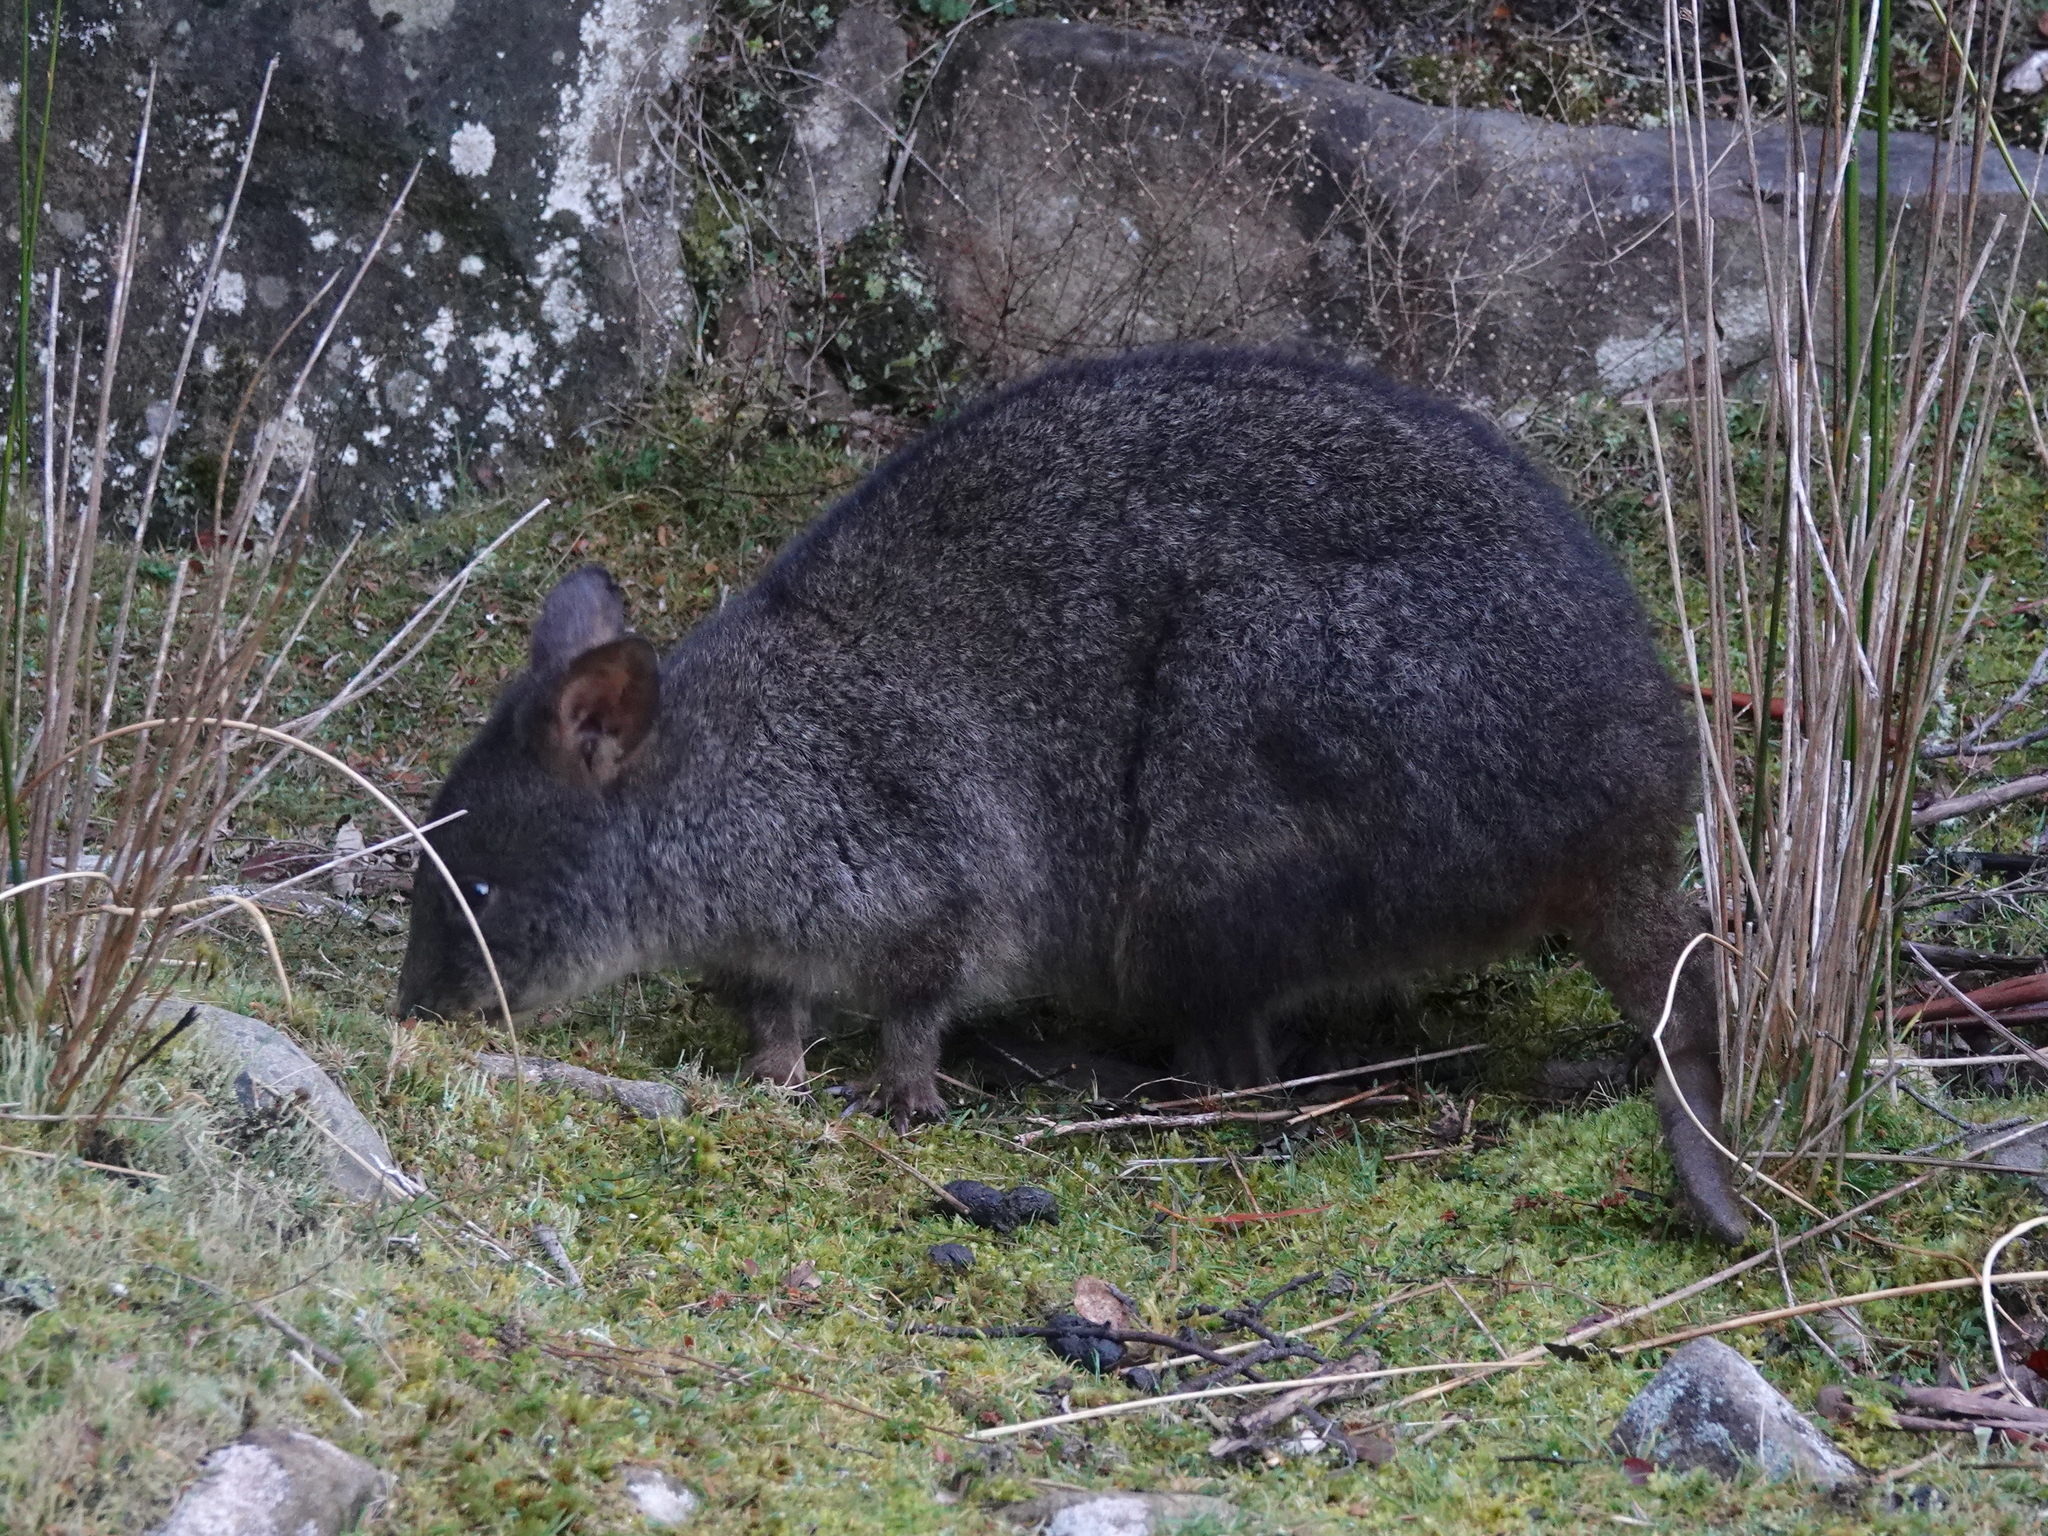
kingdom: Animalia
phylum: Chordata
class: Mammalia
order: Diprotodontia
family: Macropodidae
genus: Thylogale
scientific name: Thylogale billardierii
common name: Tasmanian pademelon
